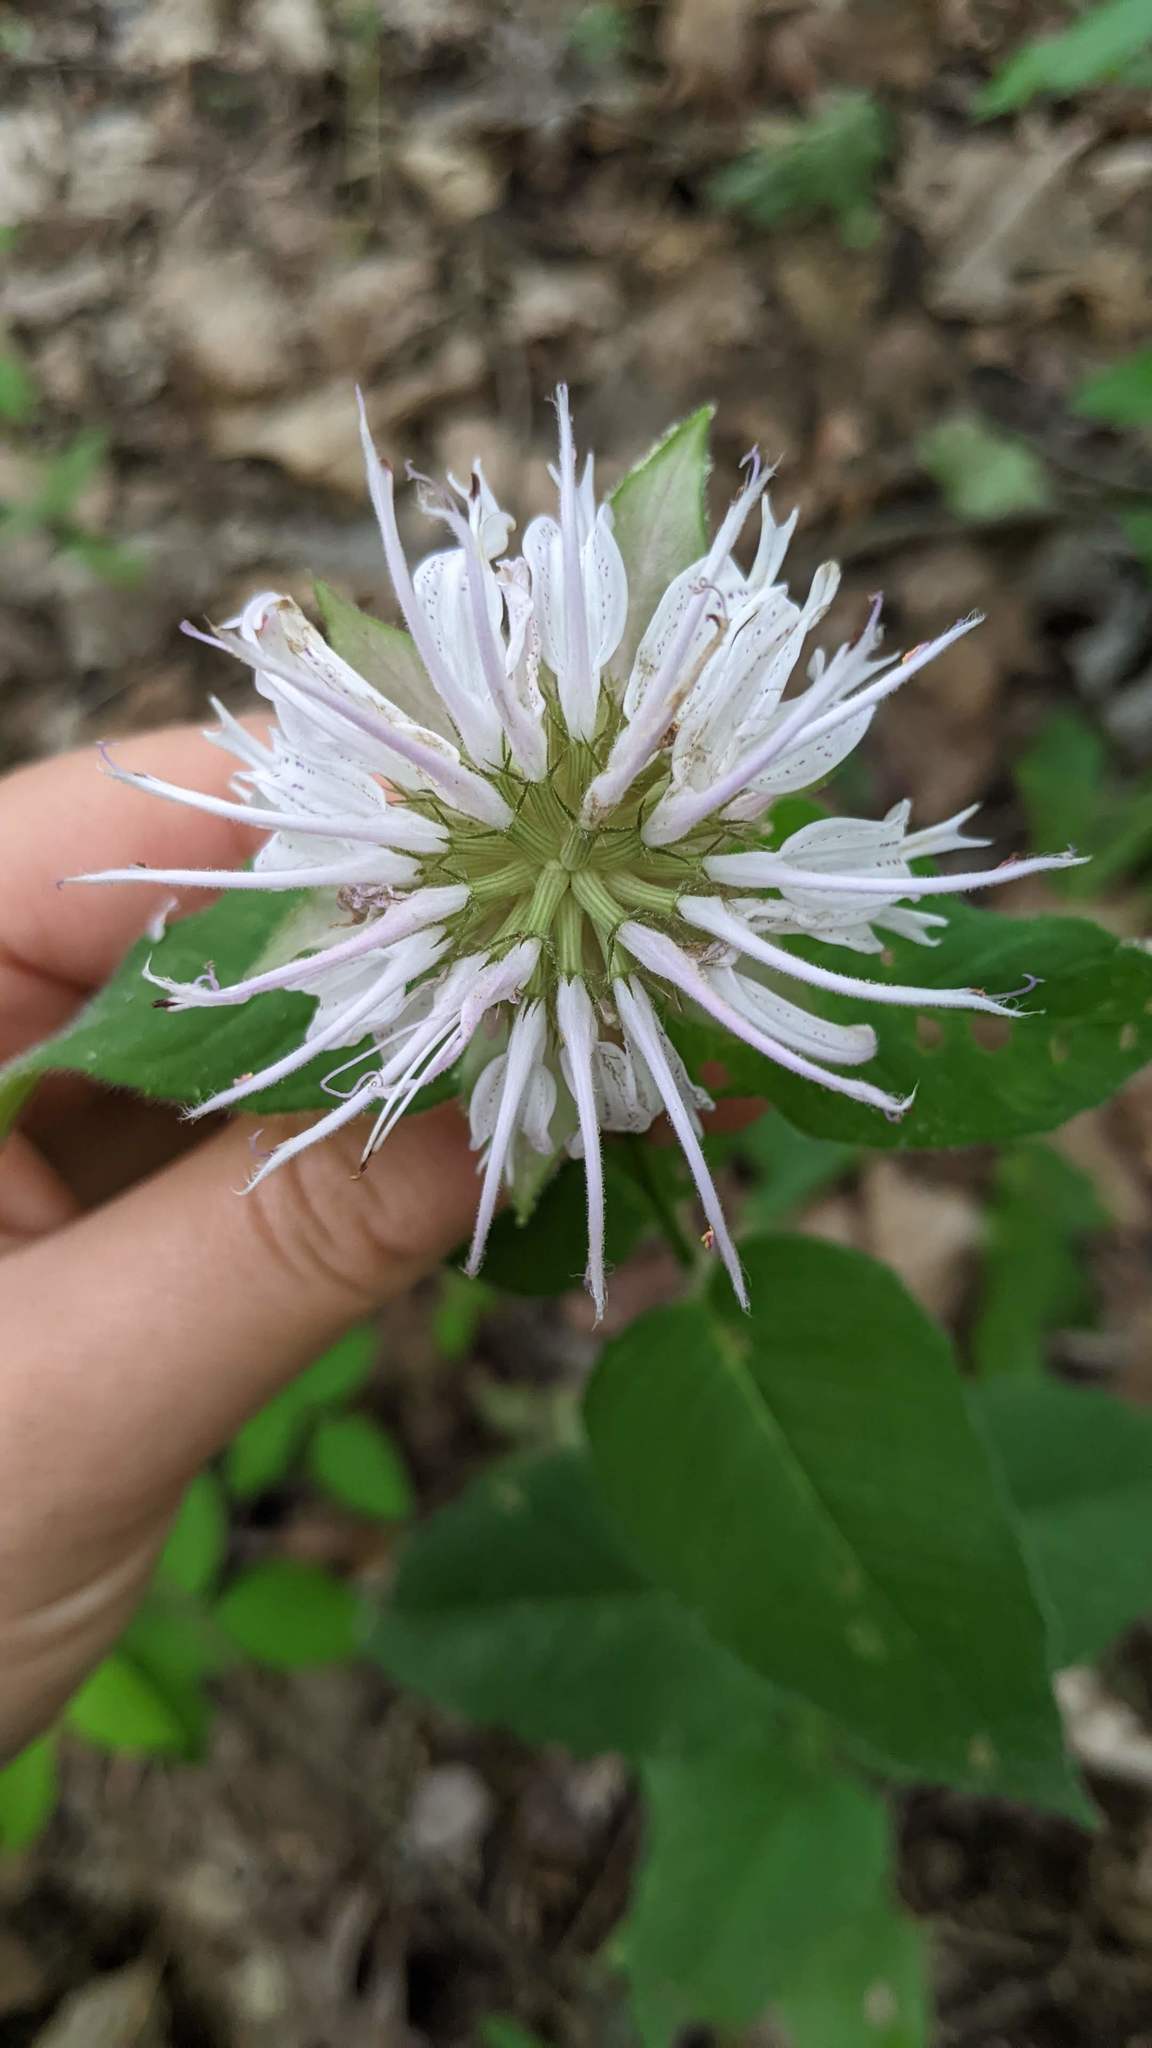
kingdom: Plantae
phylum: Tracheophyta
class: Magnoliopsida
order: Lamiales
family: Lamiaceae
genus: Monarda
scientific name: Monarda bradburiana
